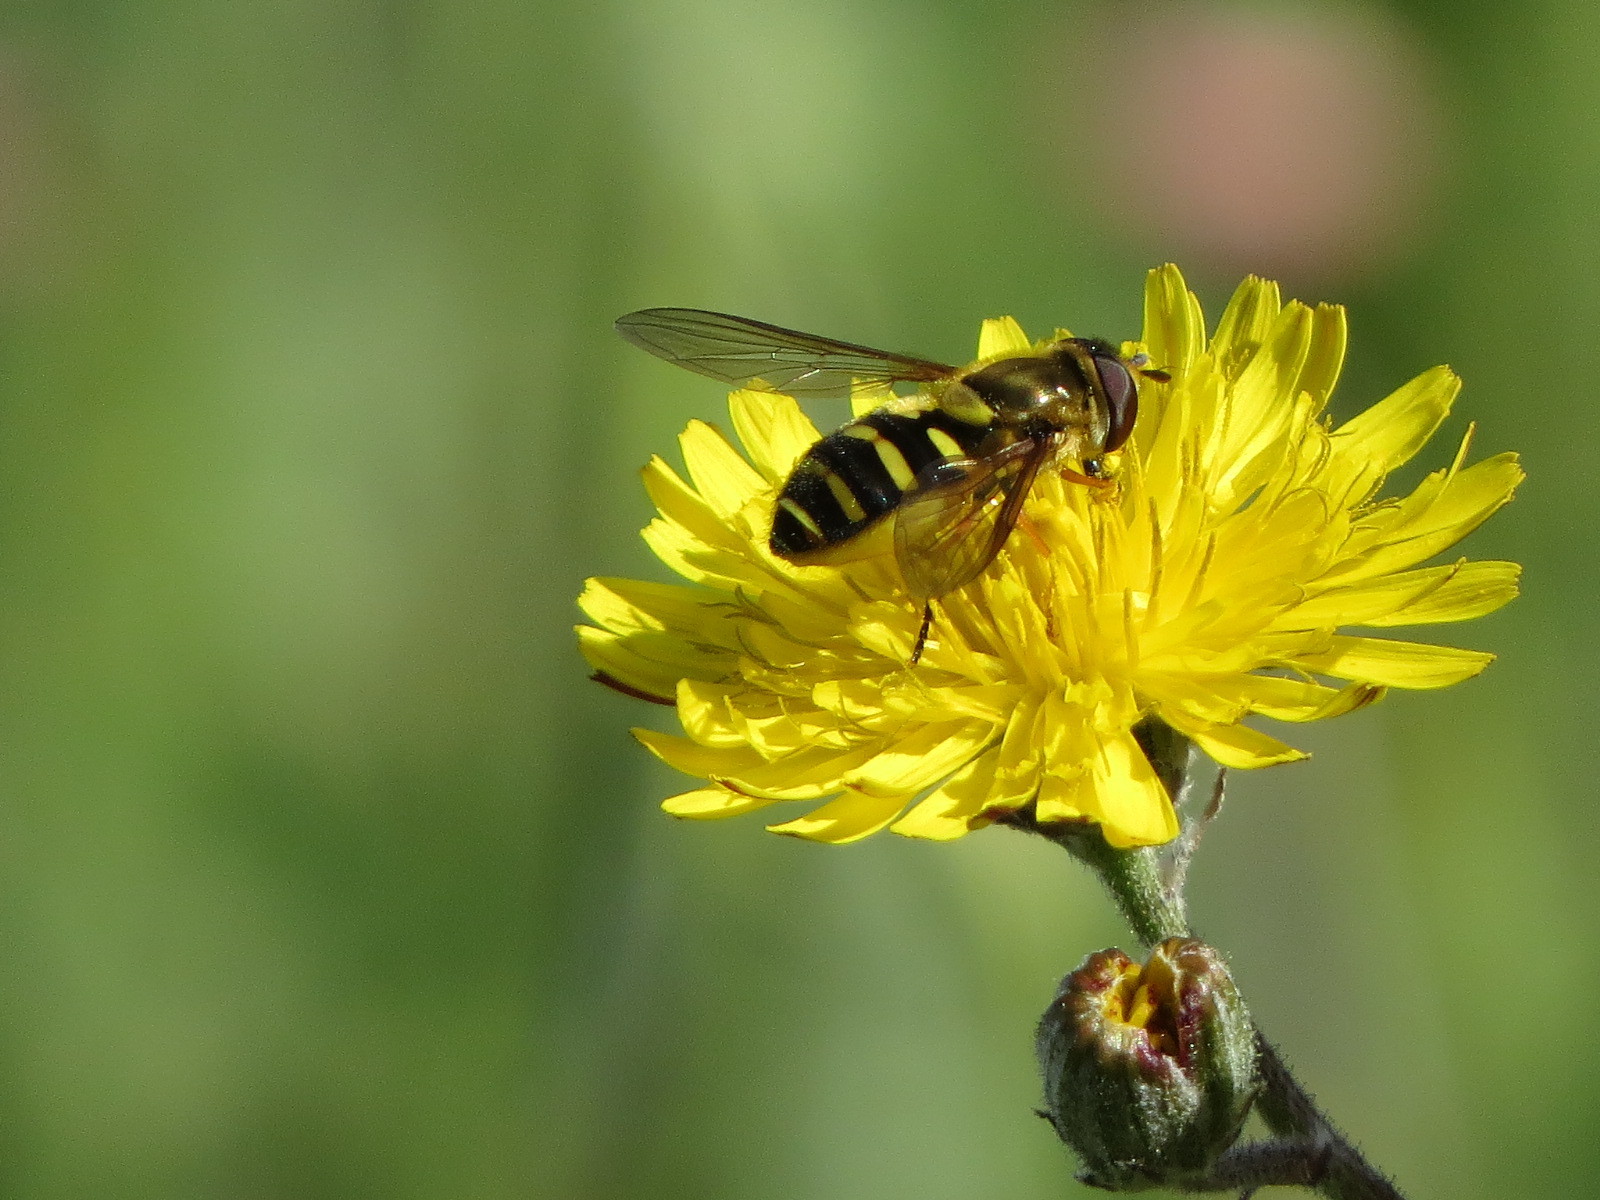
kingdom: Animalia
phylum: Arthropoda
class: Insecta
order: Diptera
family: Syrphidae
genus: Syrphus
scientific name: Syrphus opinator
